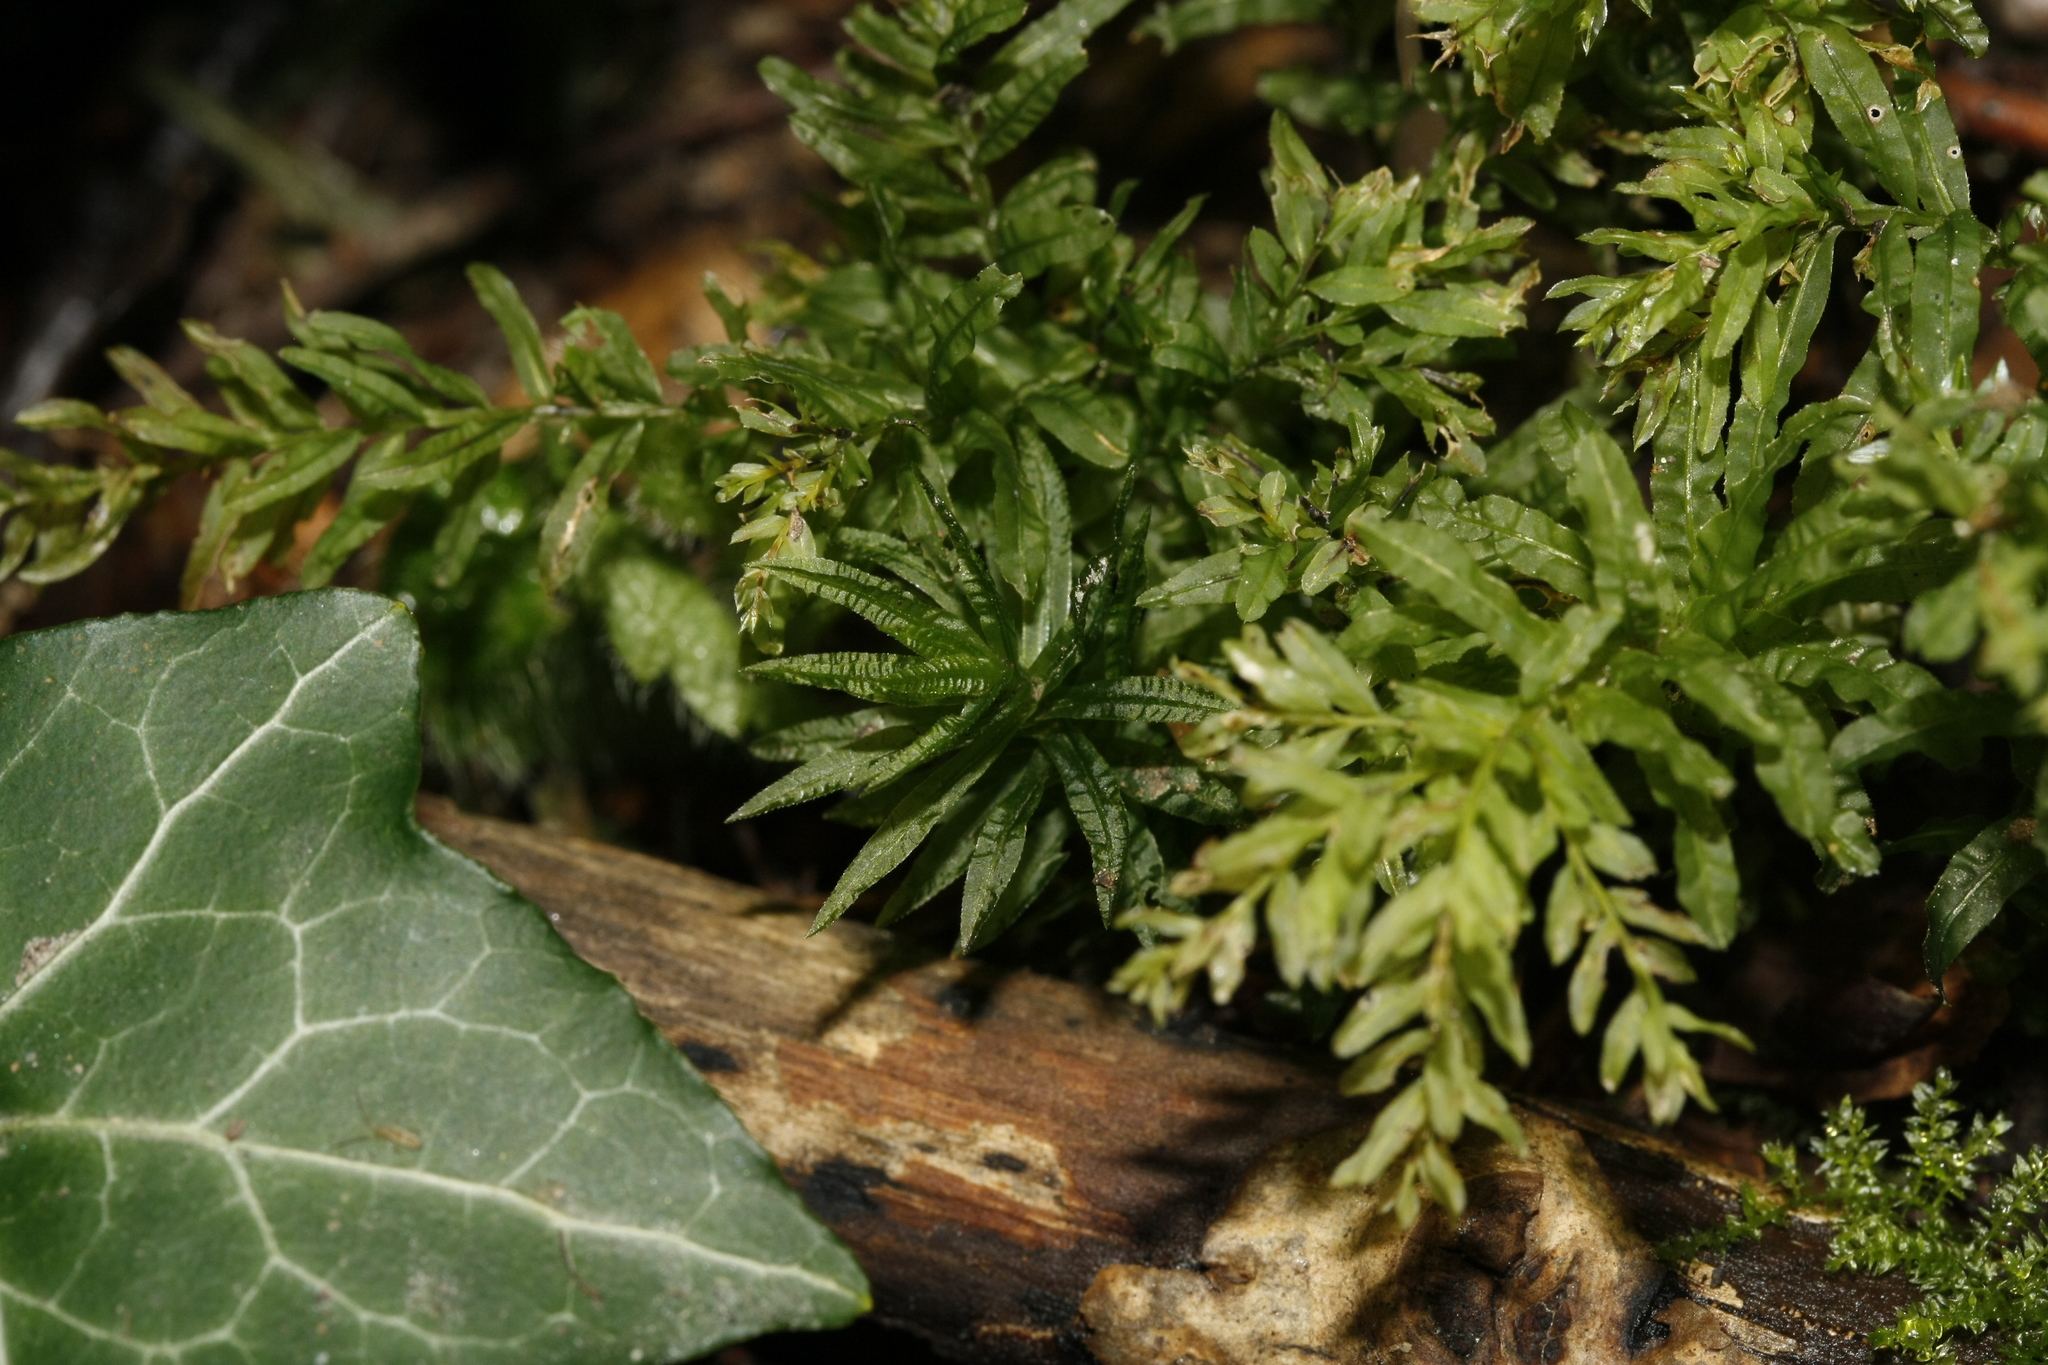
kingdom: Plantae
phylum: Bryophyta
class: Bryopsida
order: Bryales
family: Mniaceae
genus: Plagiomnium
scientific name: Plagiomnium undulatum
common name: Hart's-tongue thyme-moss
